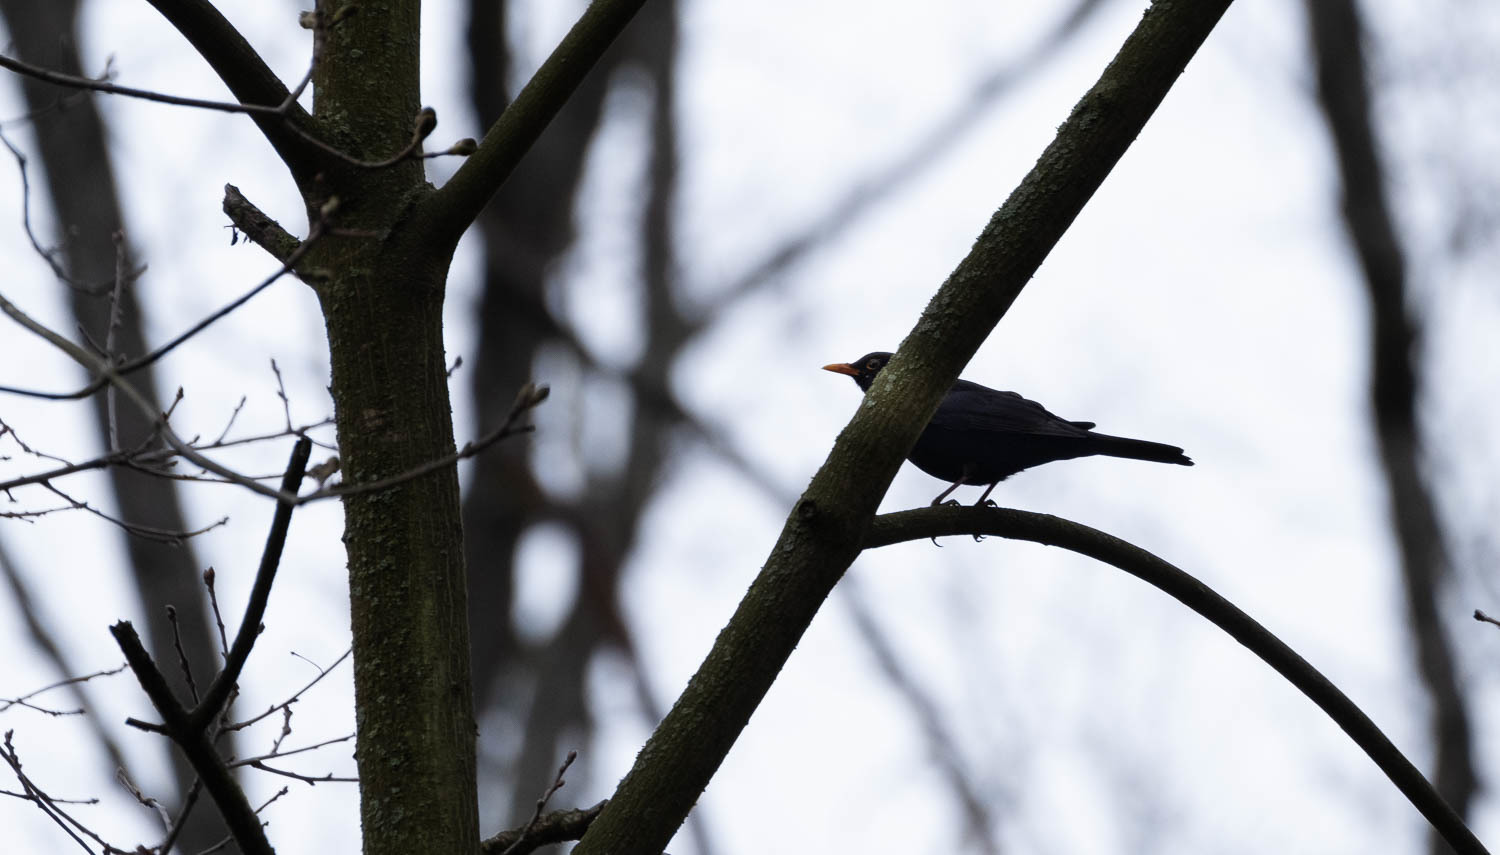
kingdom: Animalia
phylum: Chordata
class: Aves
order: Passeriformes
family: Turdidae
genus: Turdus
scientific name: Turdus merula
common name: Common blackbird
